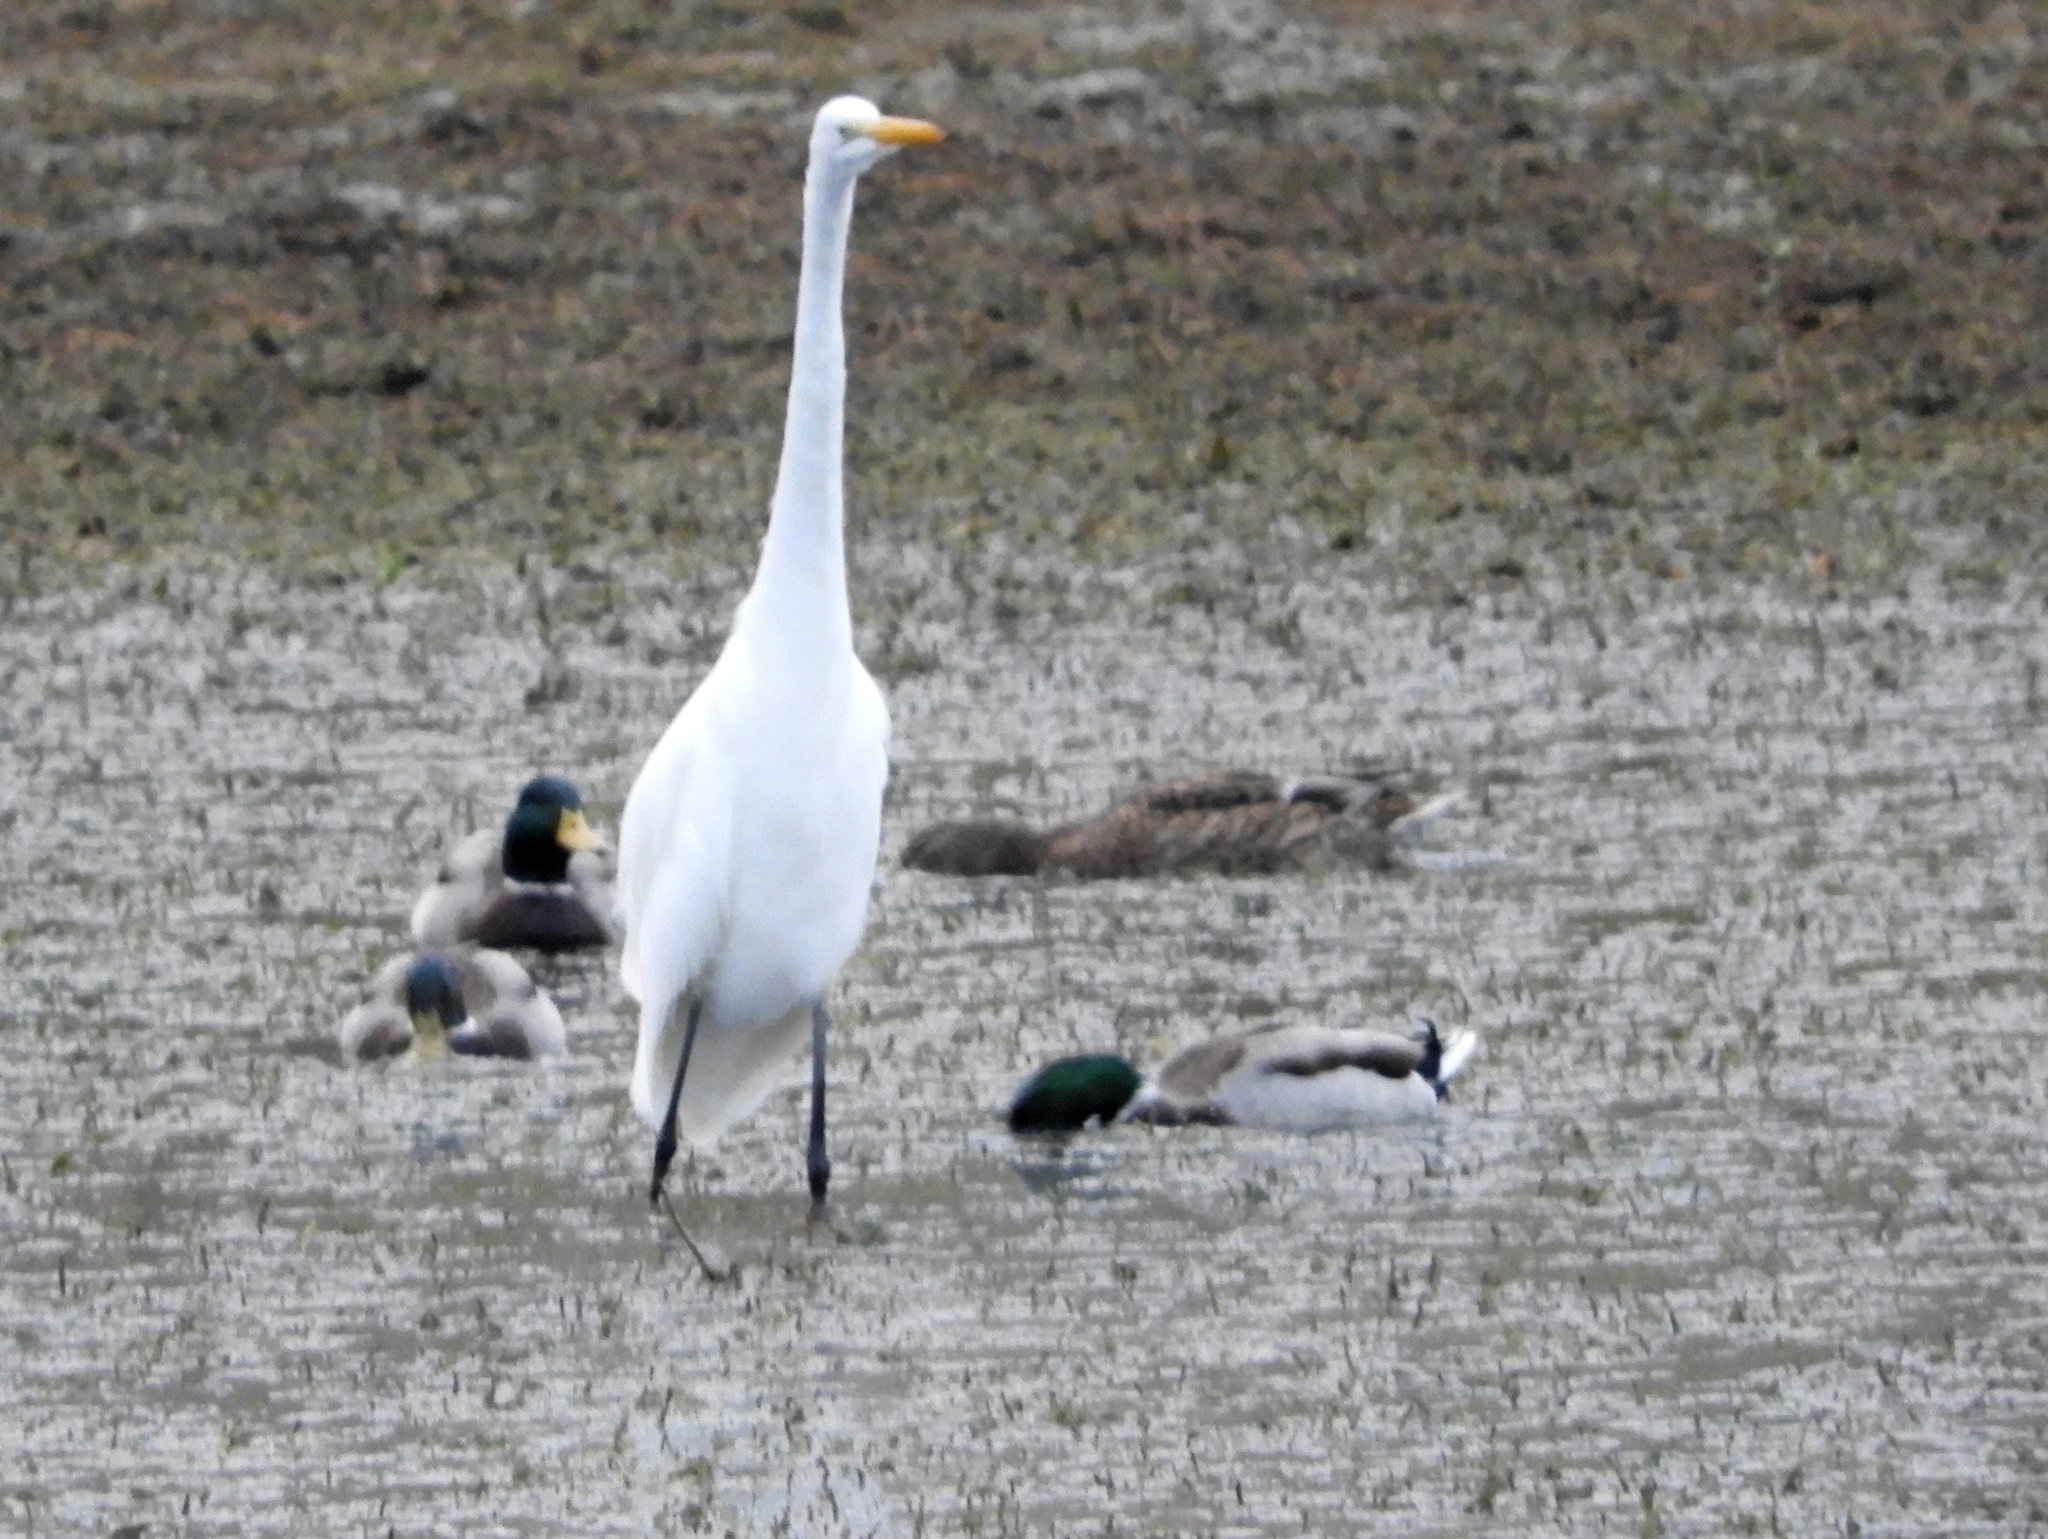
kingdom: Animalia
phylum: Chordata
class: Aves
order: Pelecaniformes
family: Ardeidae
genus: Ardea
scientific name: Ardea alba
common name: Great egret
